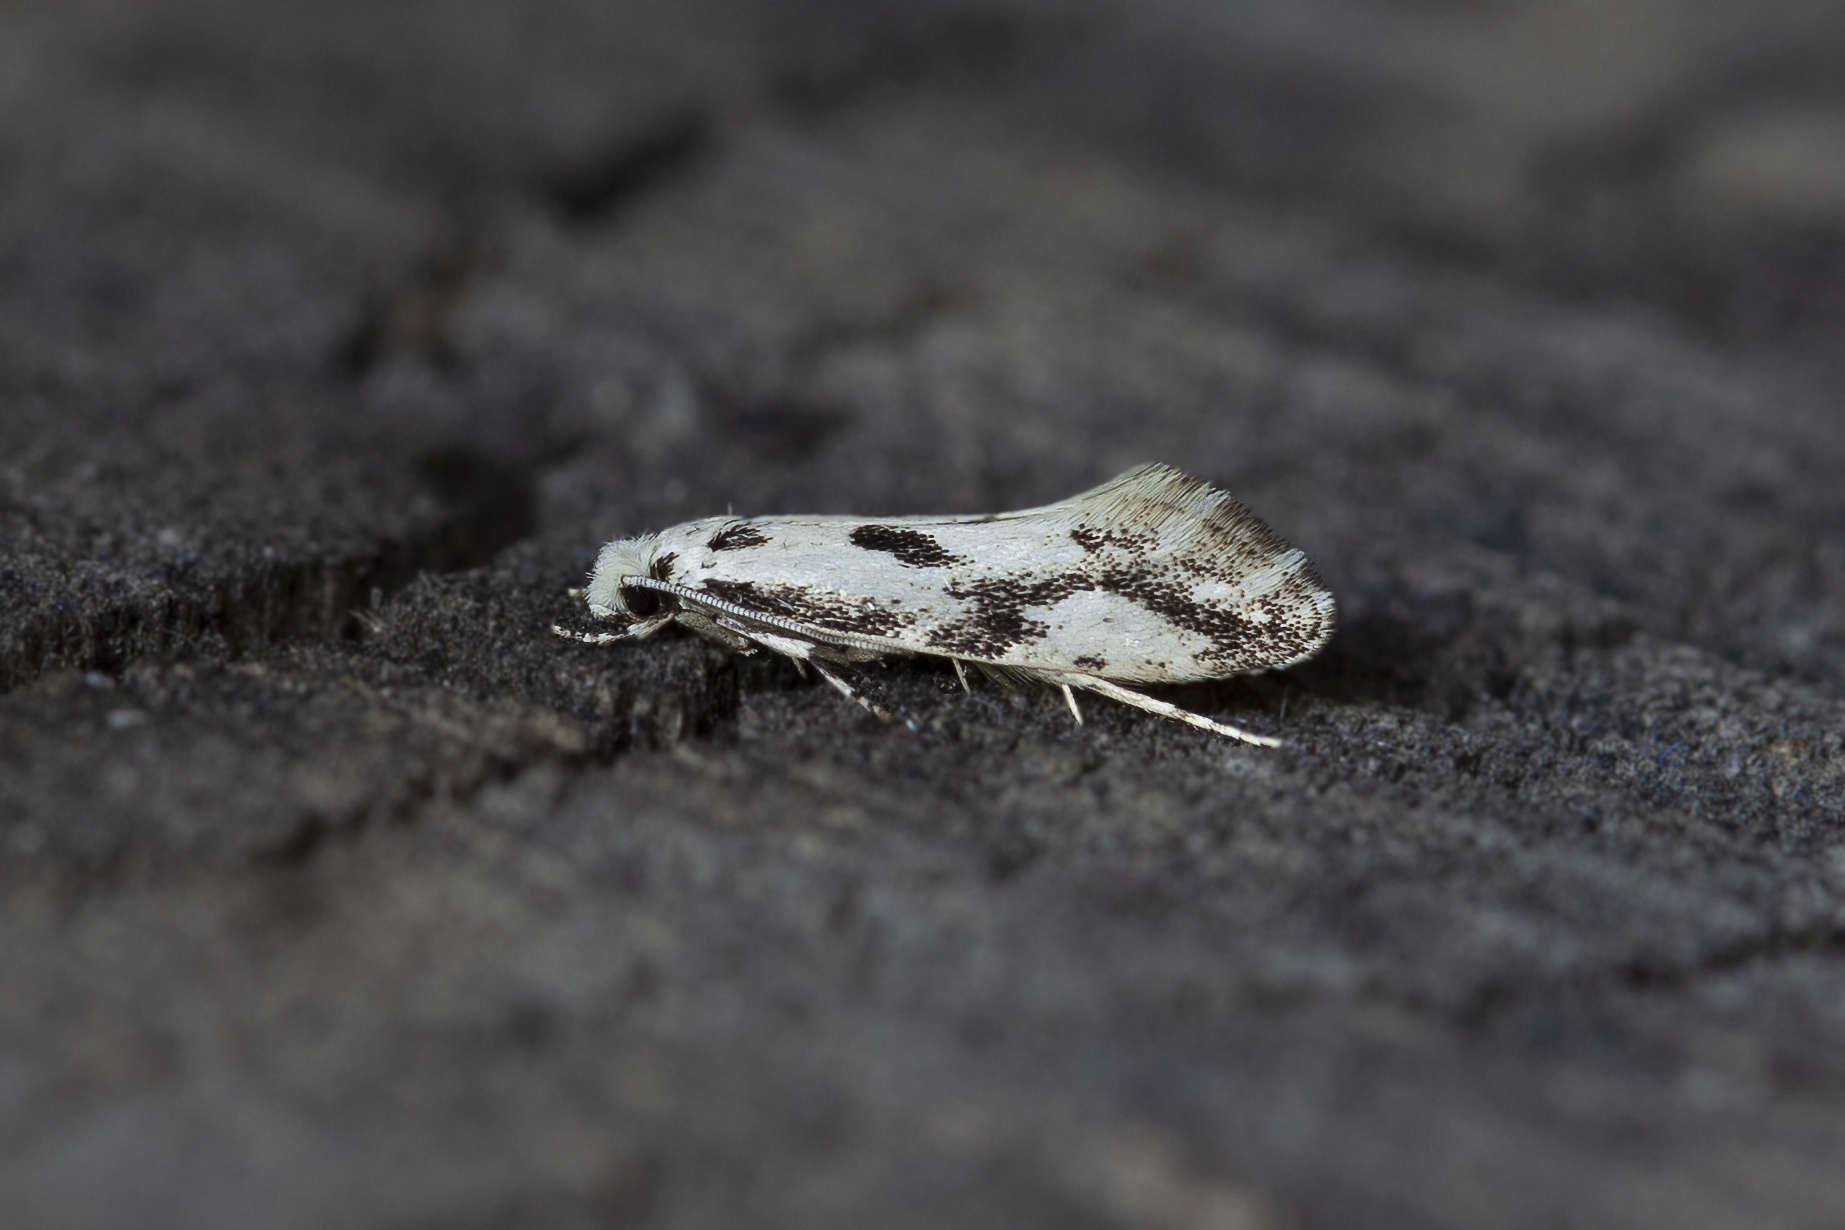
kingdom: Animalia
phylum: Arthropoda
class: Insecta
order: Lepidoptera
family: Tineidae
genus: Nemapogon
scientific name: Nemapogon picarella
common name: Pied tineid moth
